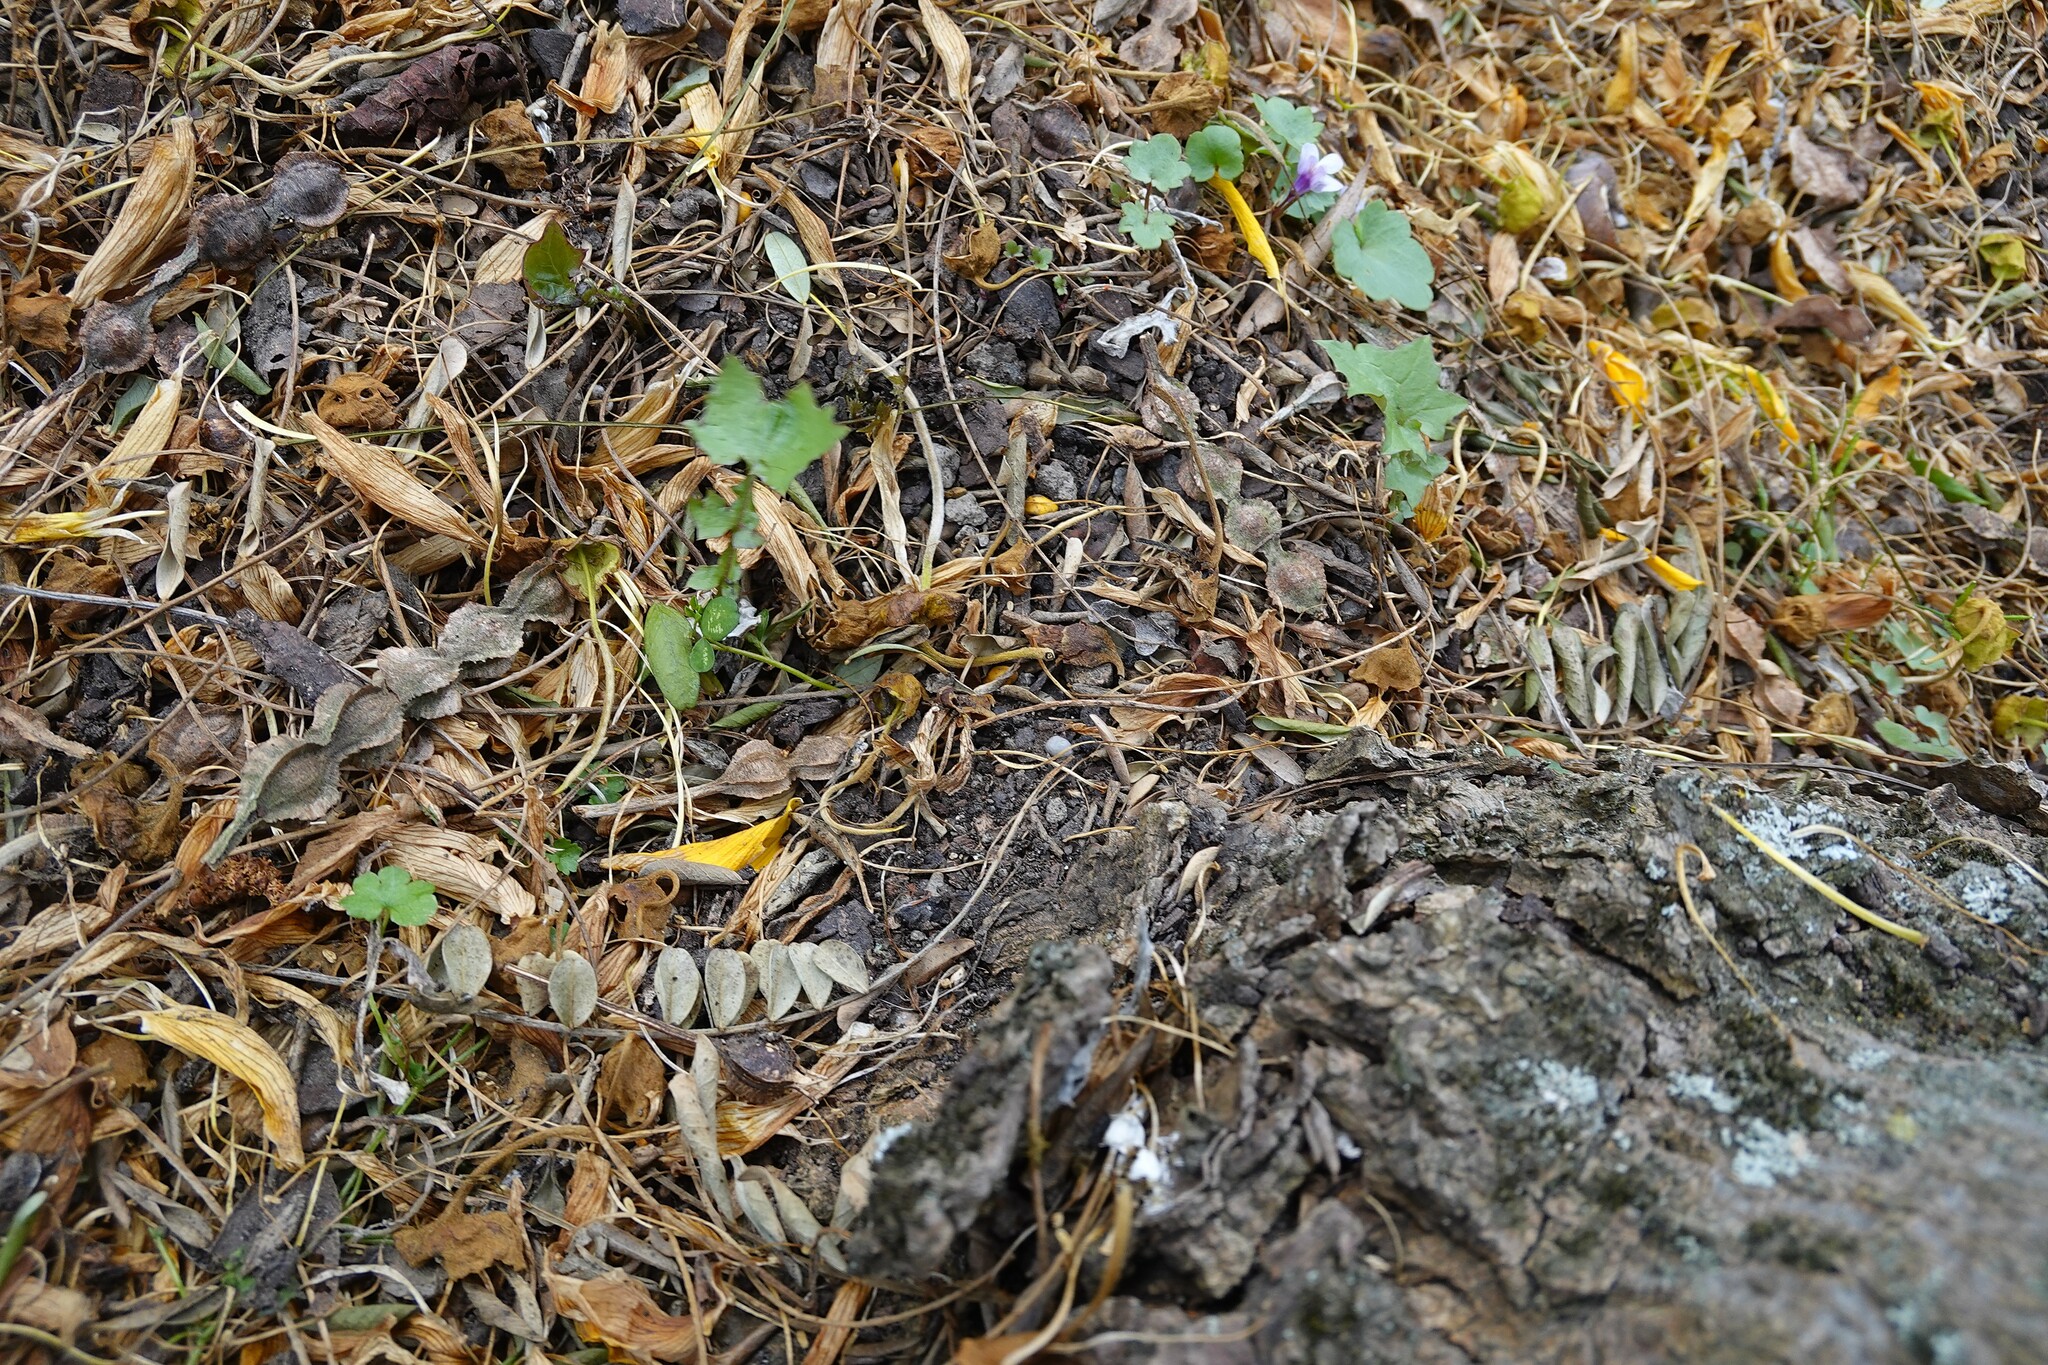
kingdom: Plantae
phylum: Tracheophyta
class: Magnoliopsida
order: Asterales
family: Asteraceae
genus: Mycelis
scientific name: Mycelis muralis
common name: Wall lettuce
